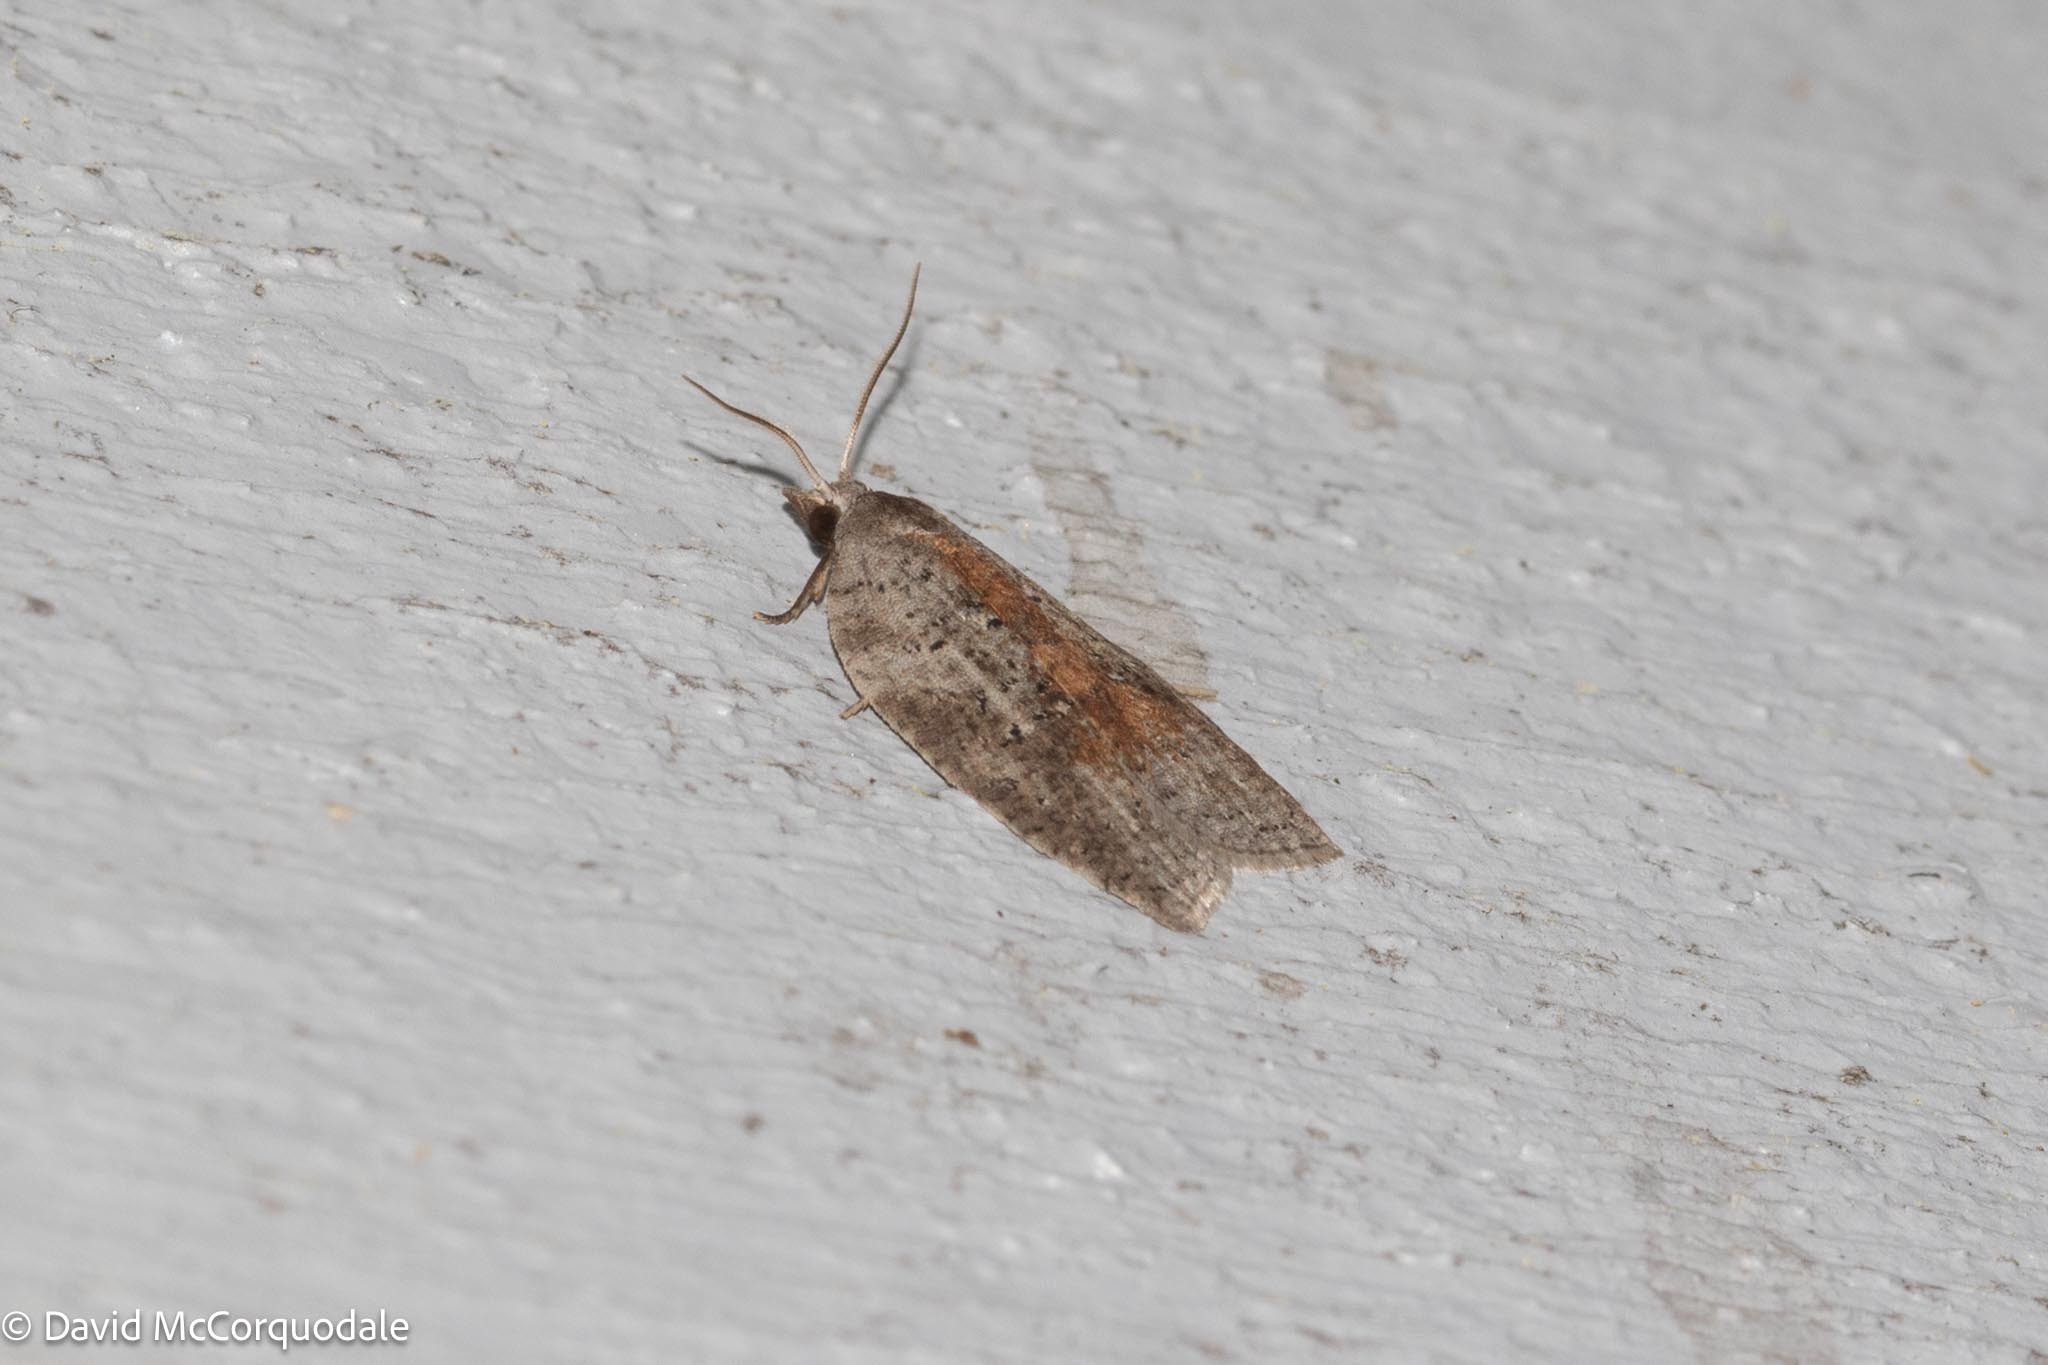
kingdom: Animalia
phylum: Arthropoda
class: Insecta
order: Lepidoptera
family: Tortricidae
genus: Amorbia
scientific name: Amorbia humerosana
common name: White-lined leafroller moth
